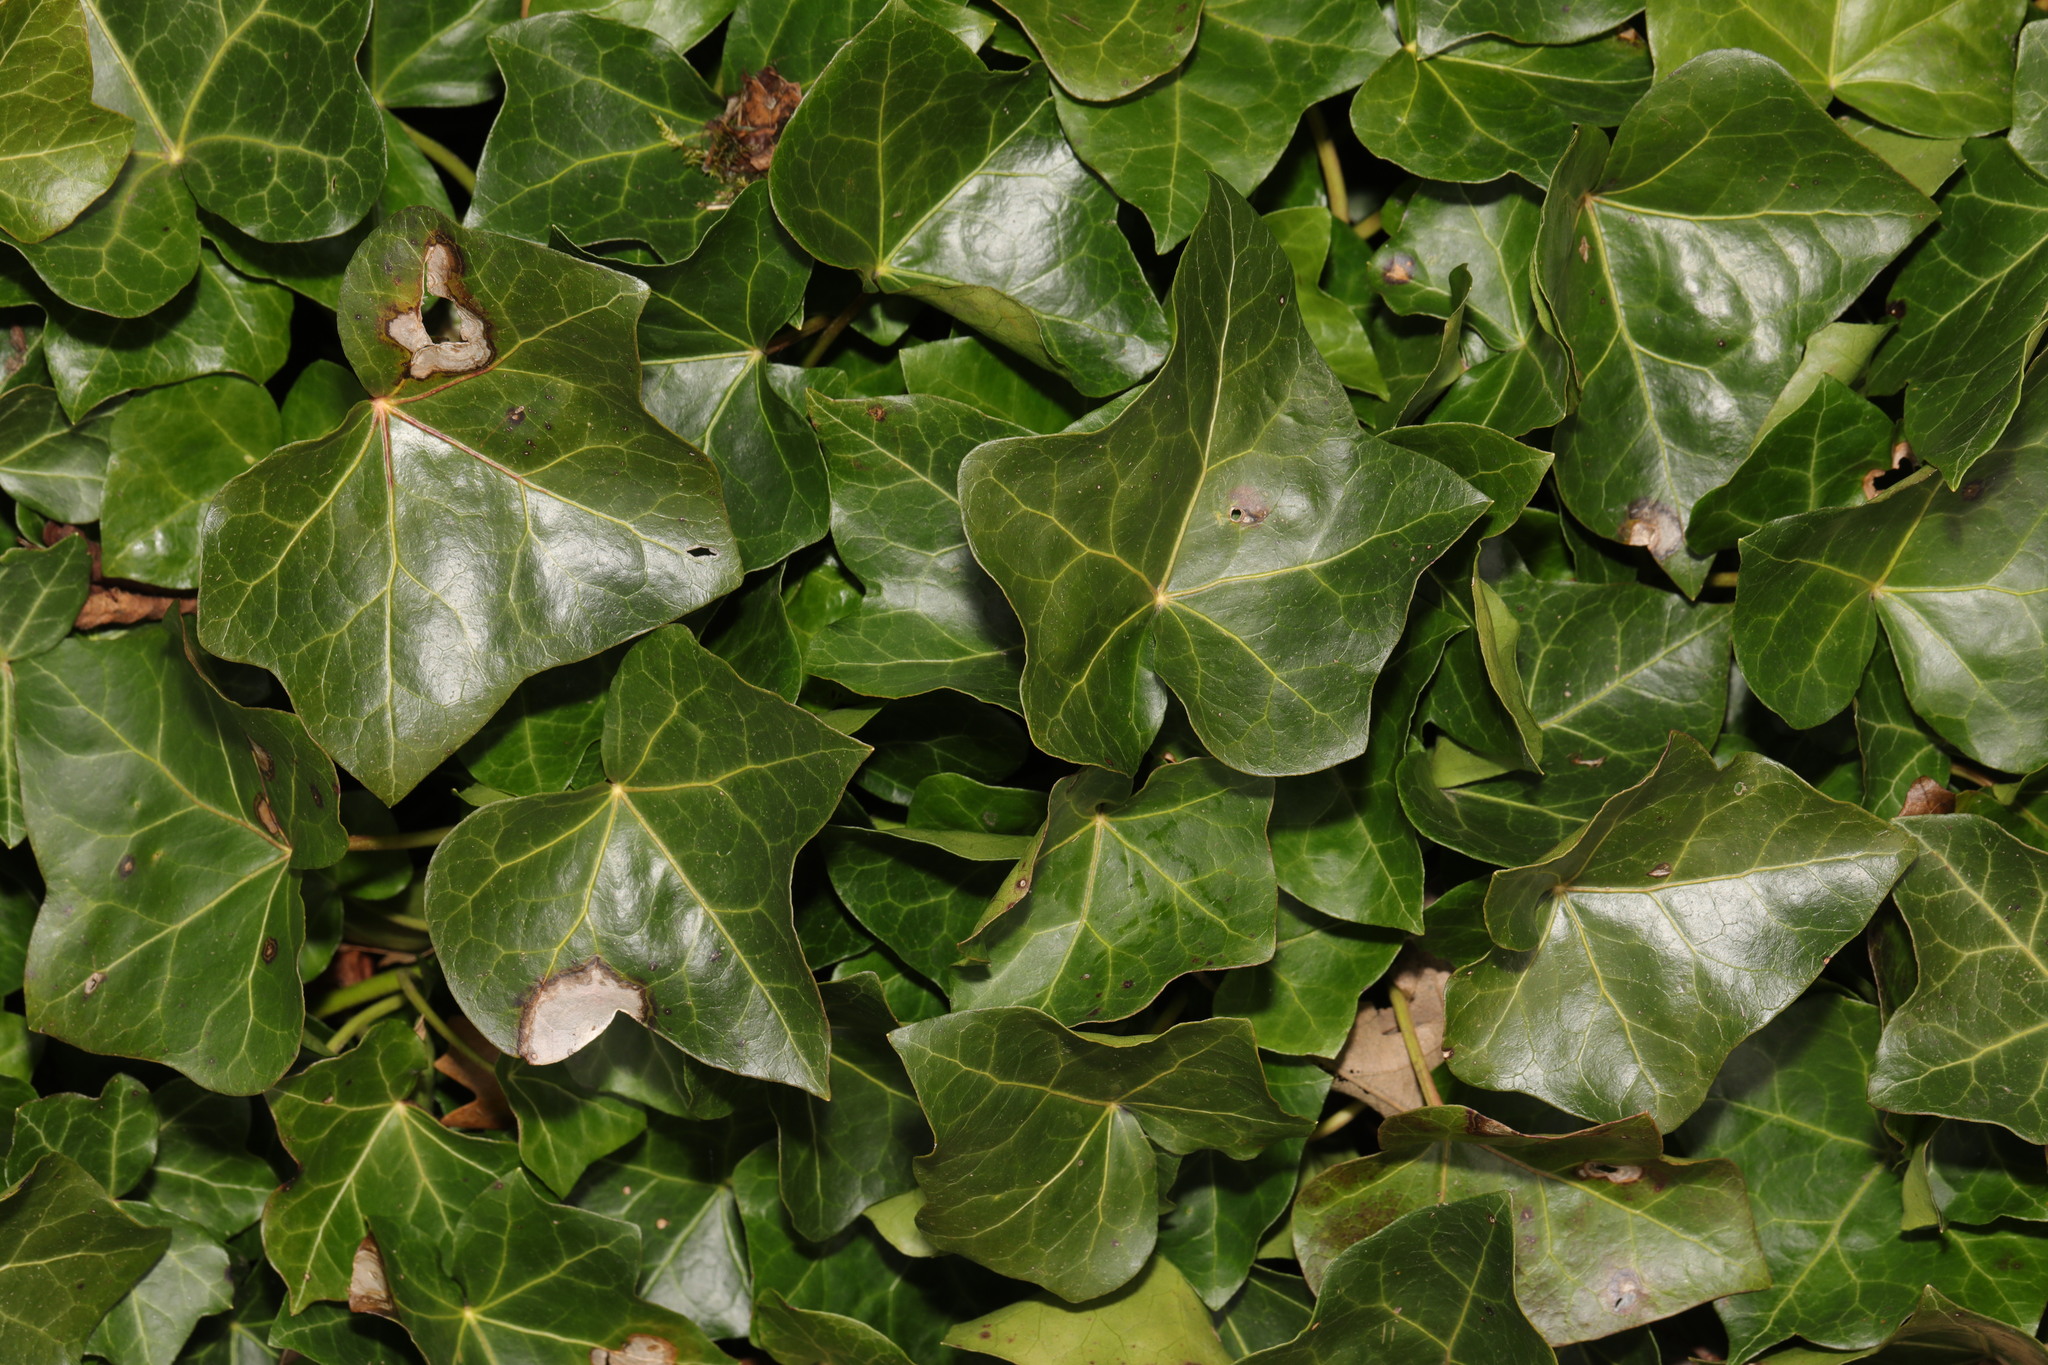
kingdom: Plantae
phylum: Tracheophyta
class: Magnoliopsida
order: Apiales
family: Araliaceae
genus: Hedera
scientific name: Hedera helix
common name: Ivy
